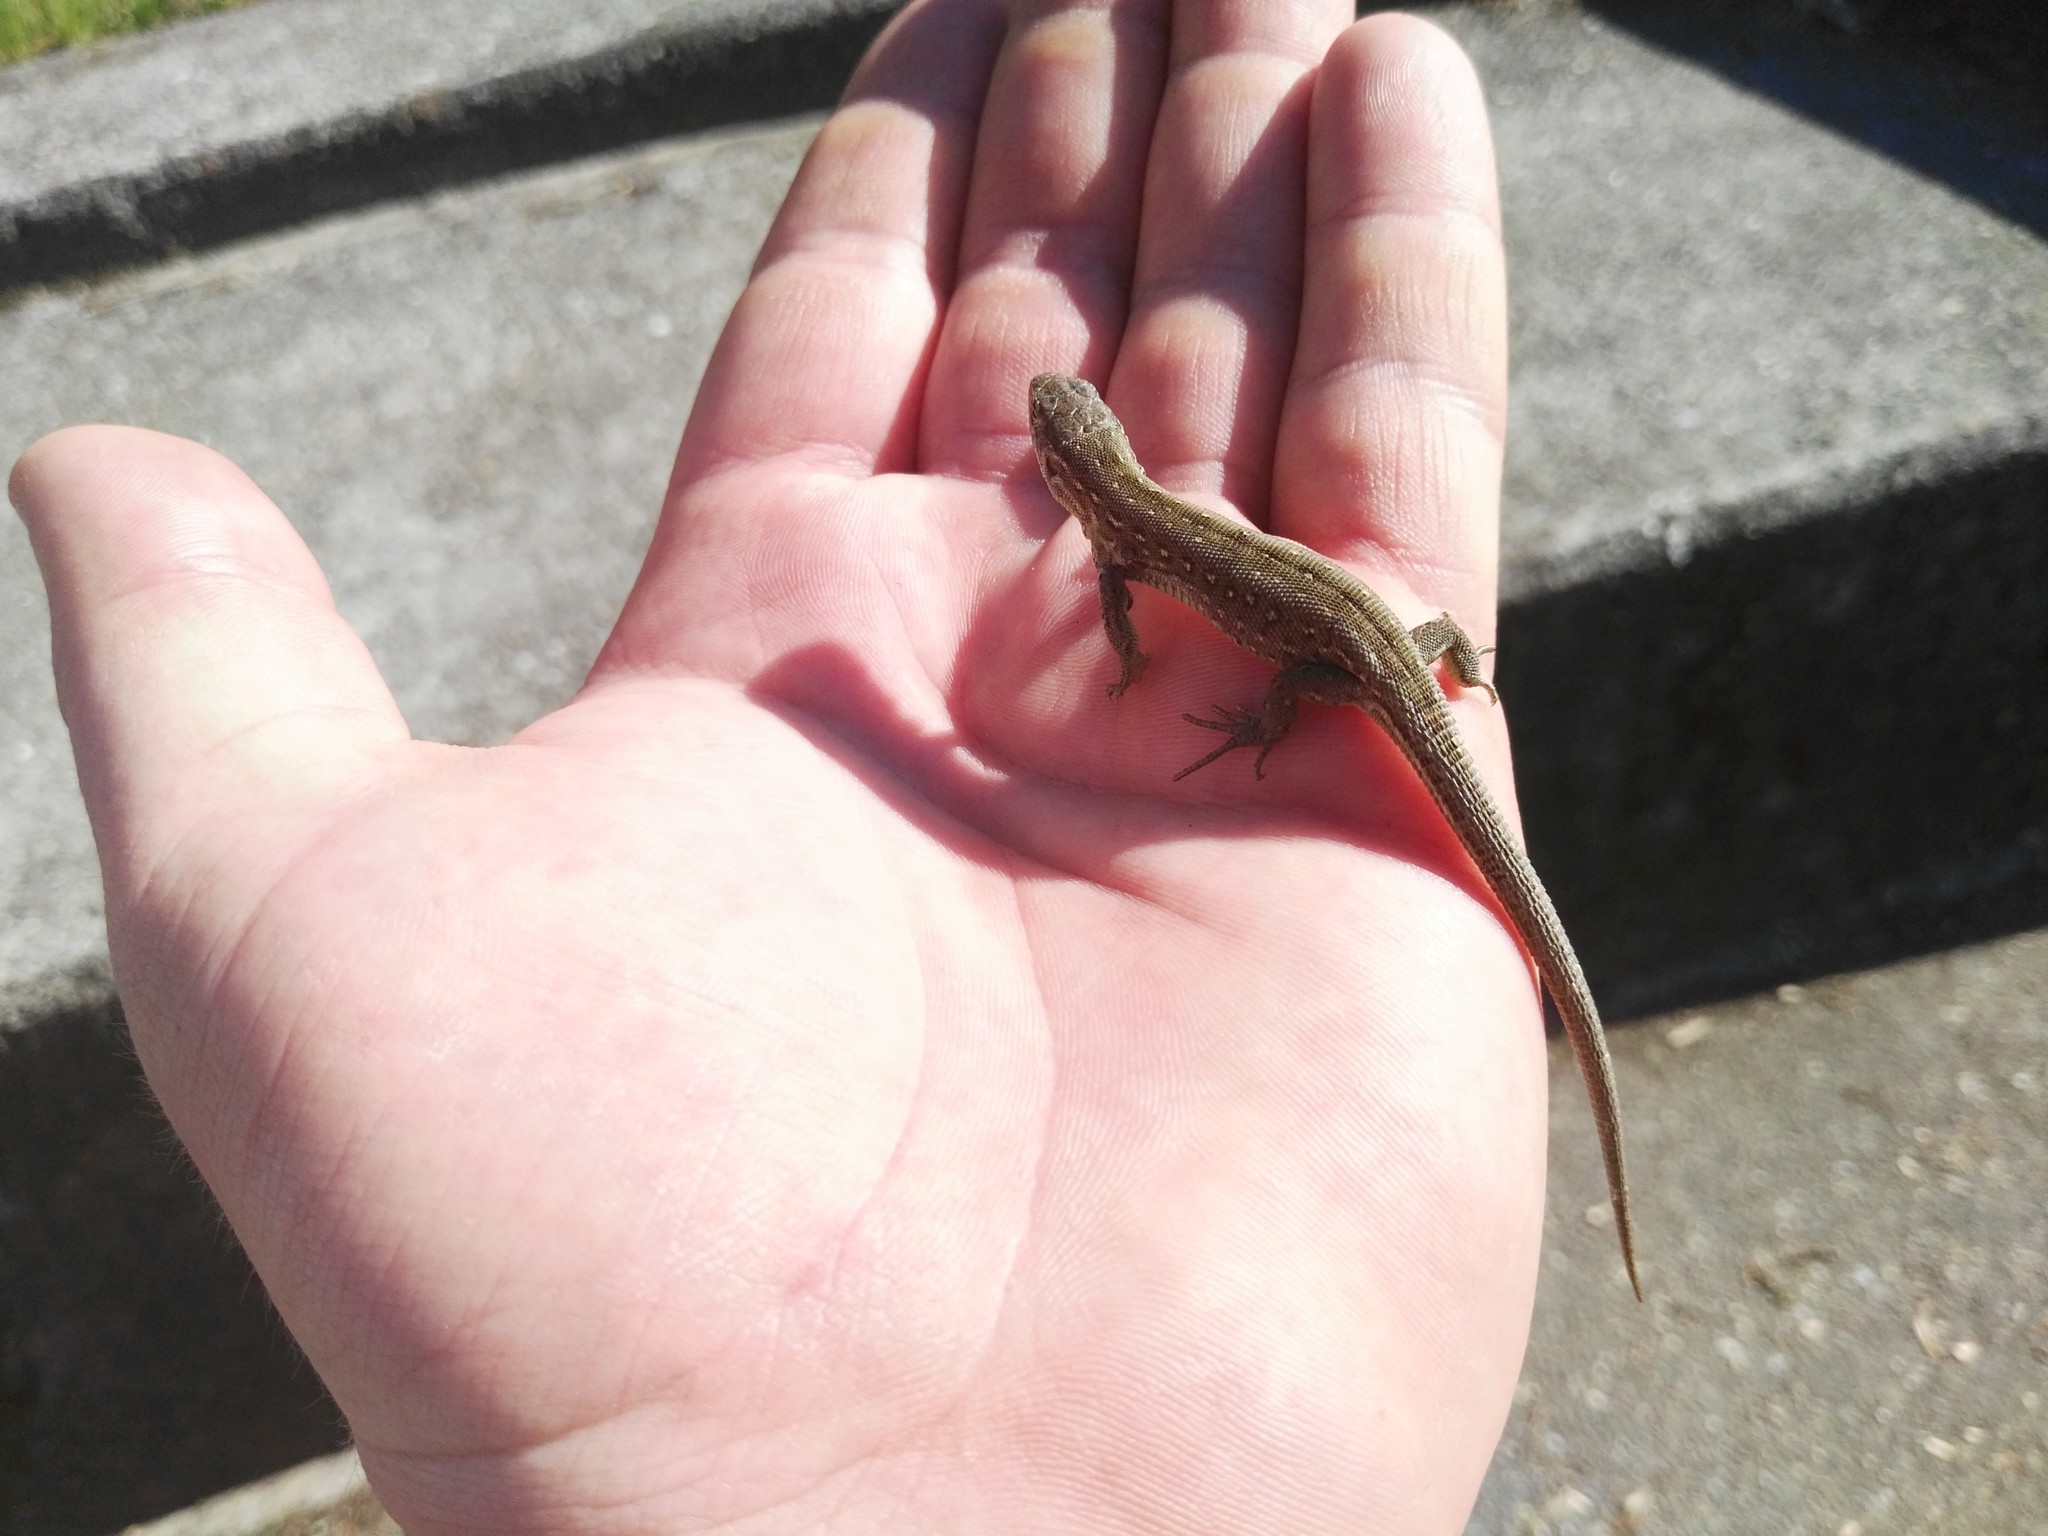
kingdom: Animalia
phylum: Chordata
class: Squamata
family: Lacertidae
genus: Lacerta
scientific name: Lacerta agilis
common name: Sand lizard
